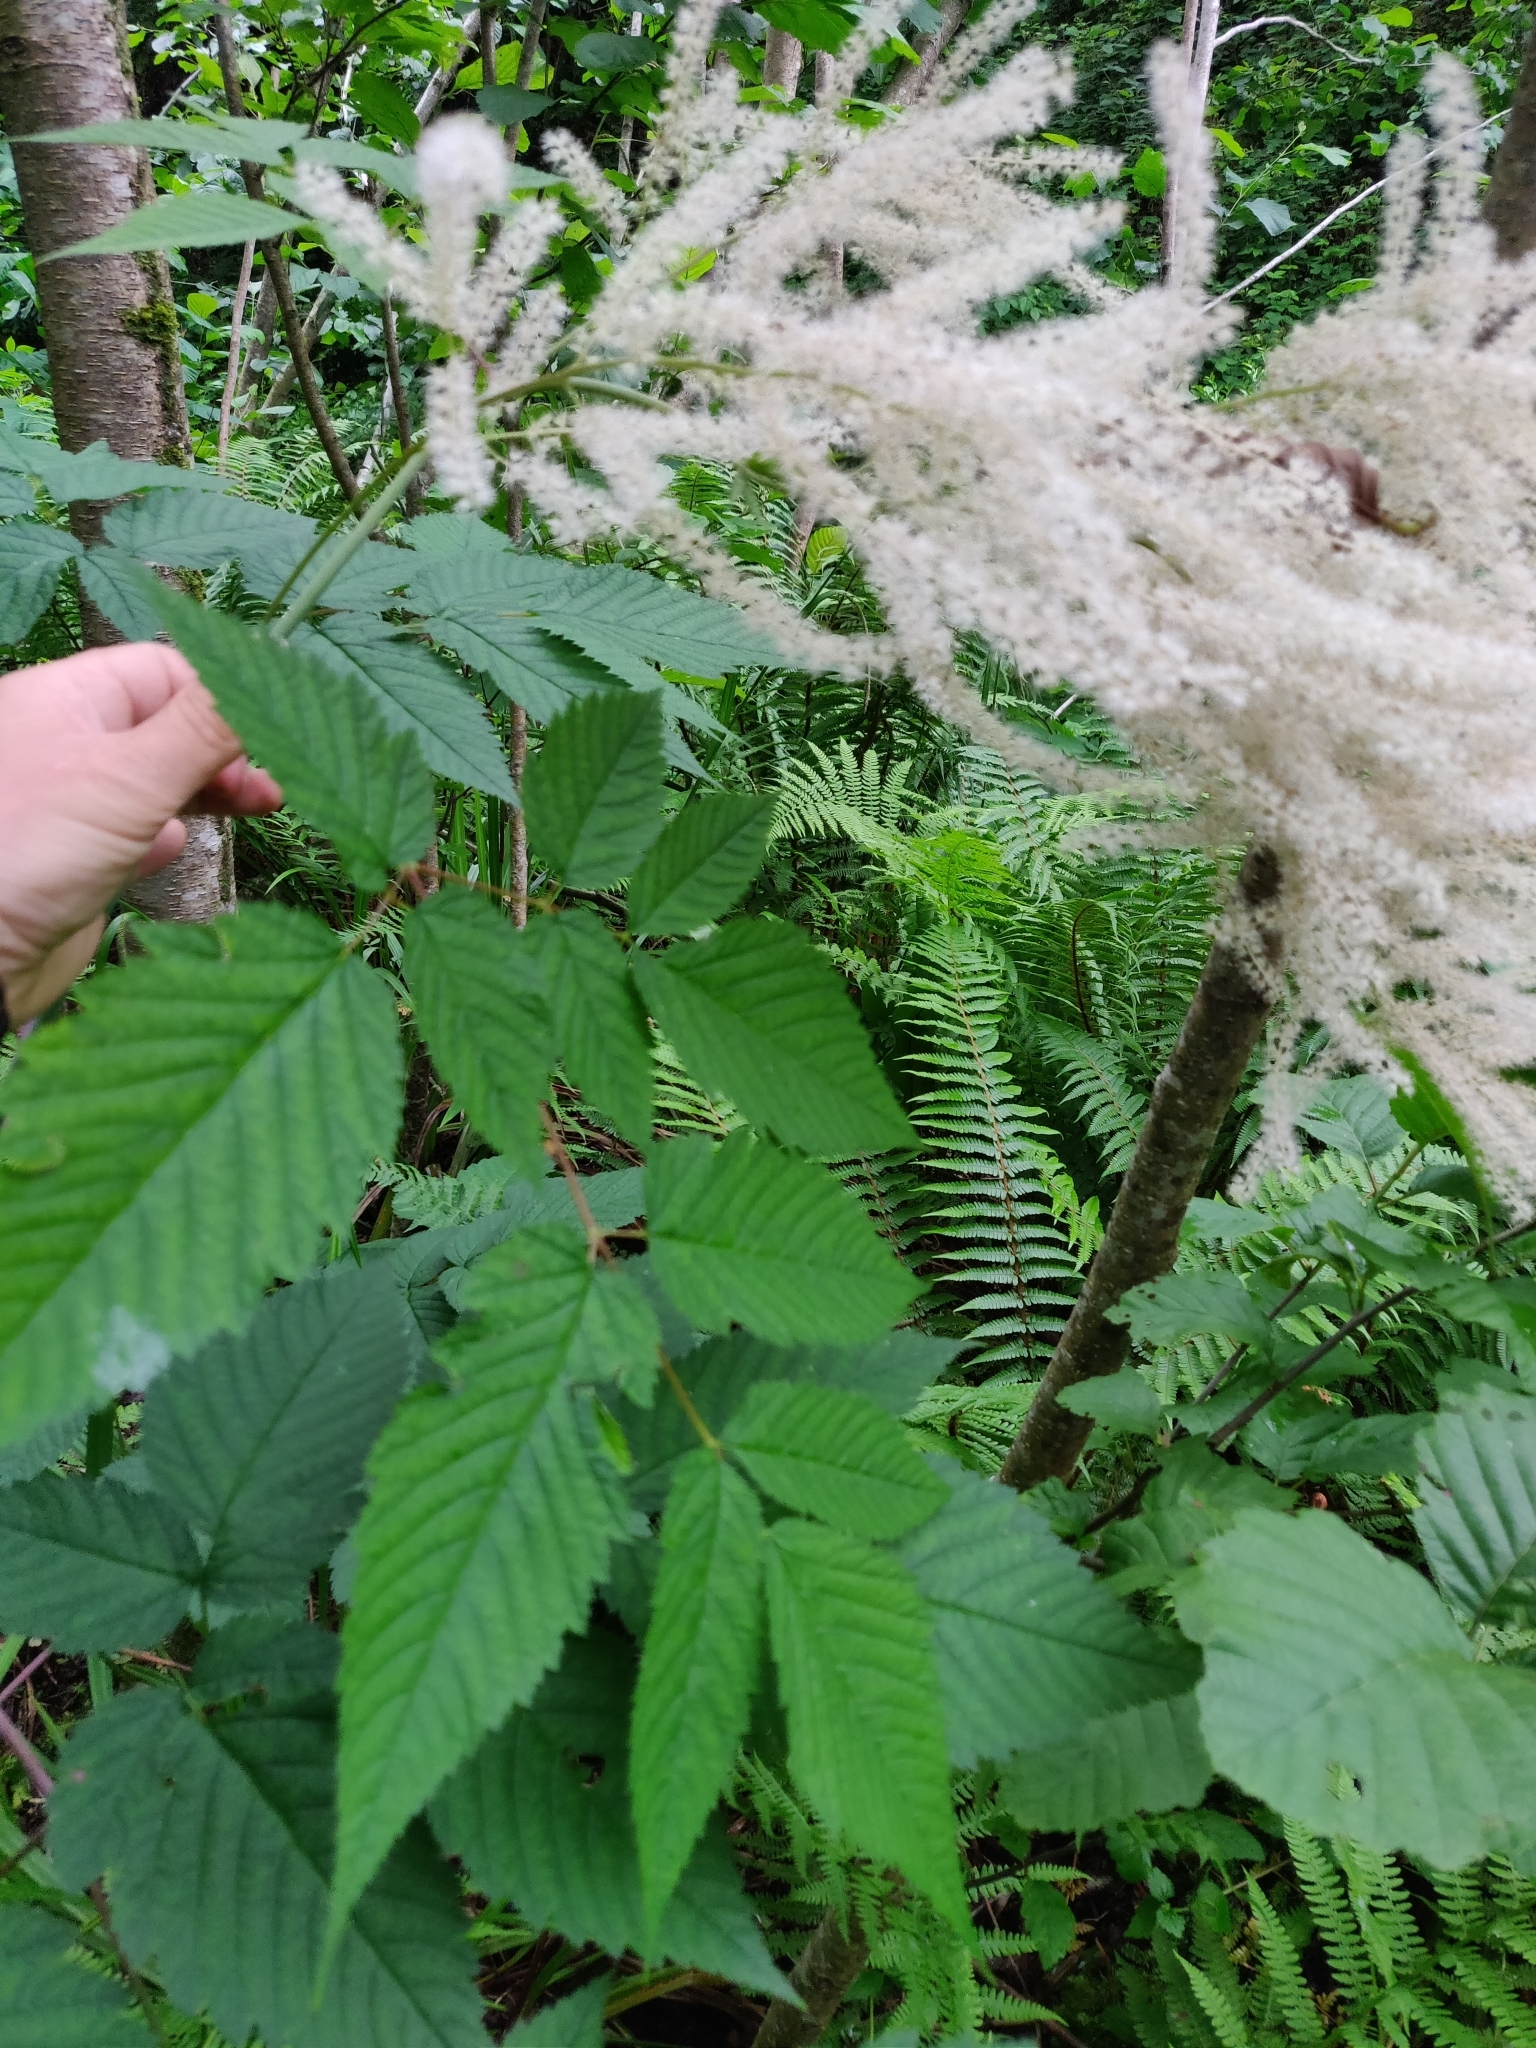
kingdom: Plantae
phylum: Tracheophyta
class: Magnoliopsida
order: Rosales
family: Rosaceae
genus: Aruncus
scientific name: Aruncus dioicus
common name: Buck's-beard
